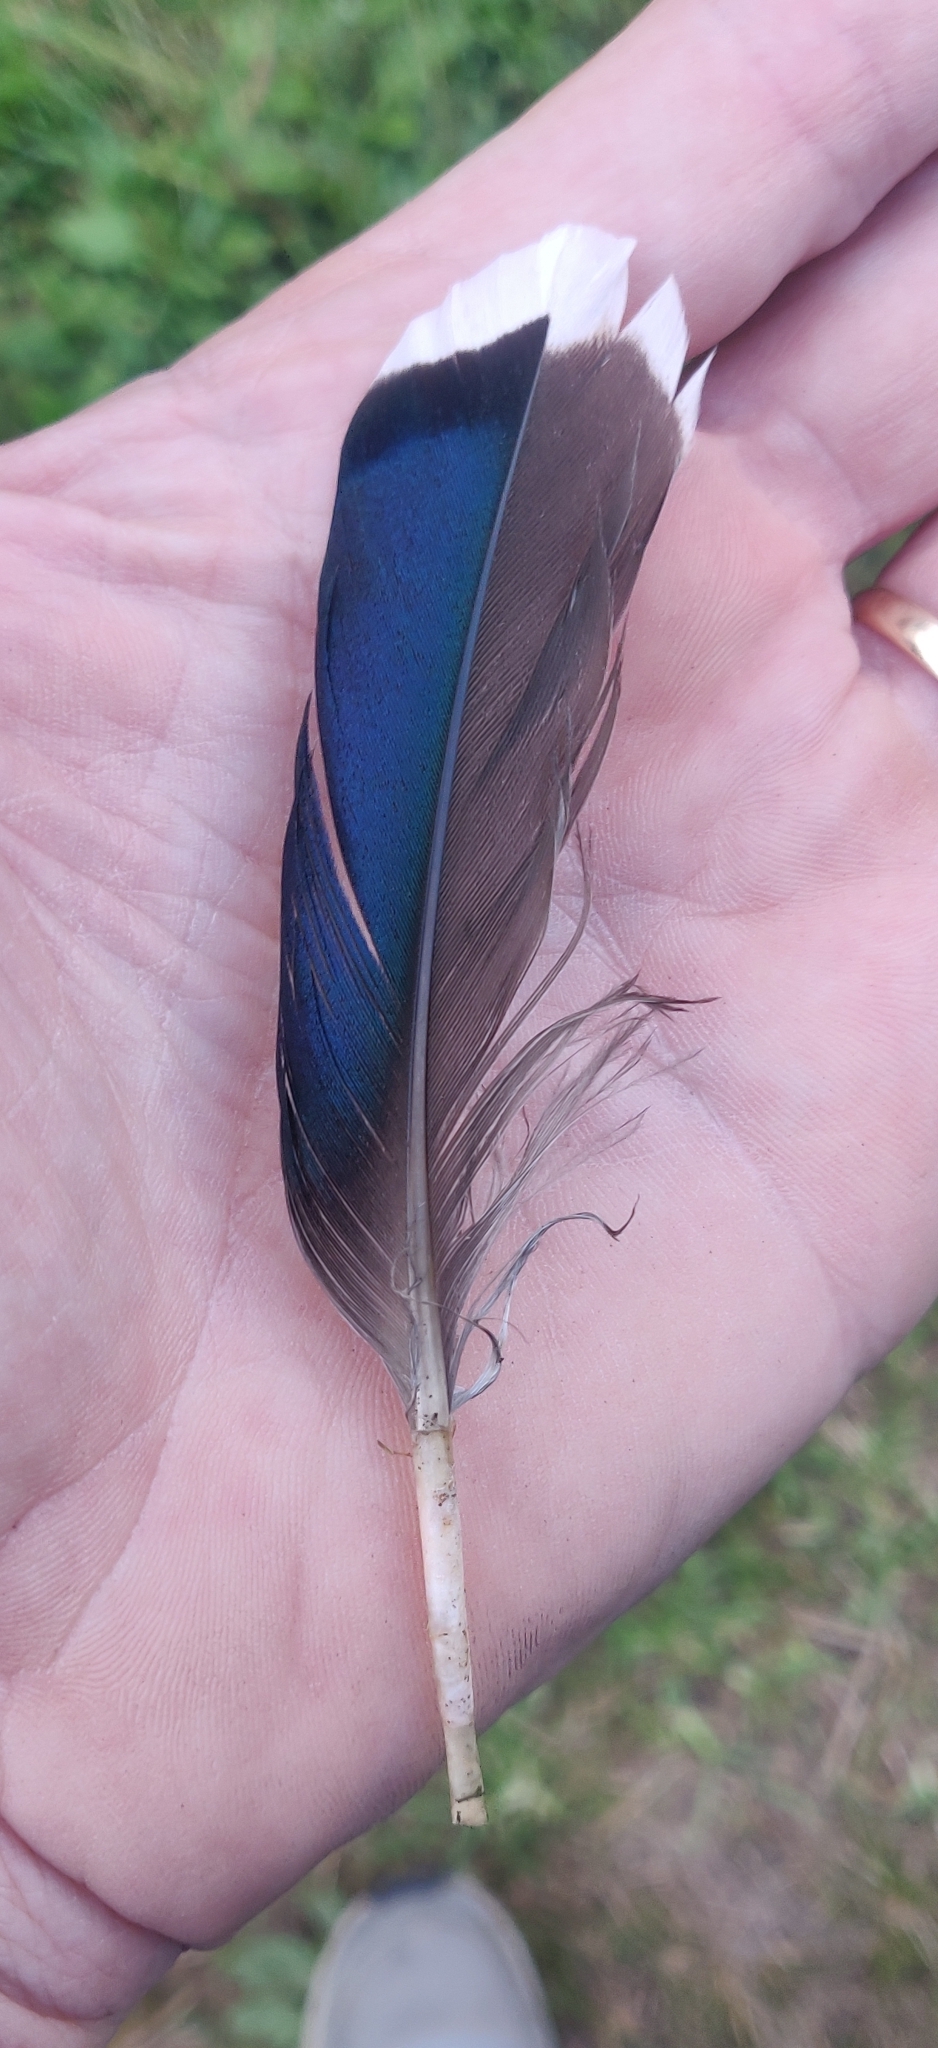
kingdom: Animalia
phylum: Chordata
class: Aves
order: Anseriformes
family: Anatidae
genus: Anas
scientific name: Anas platyrhynchos
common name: Mallard
